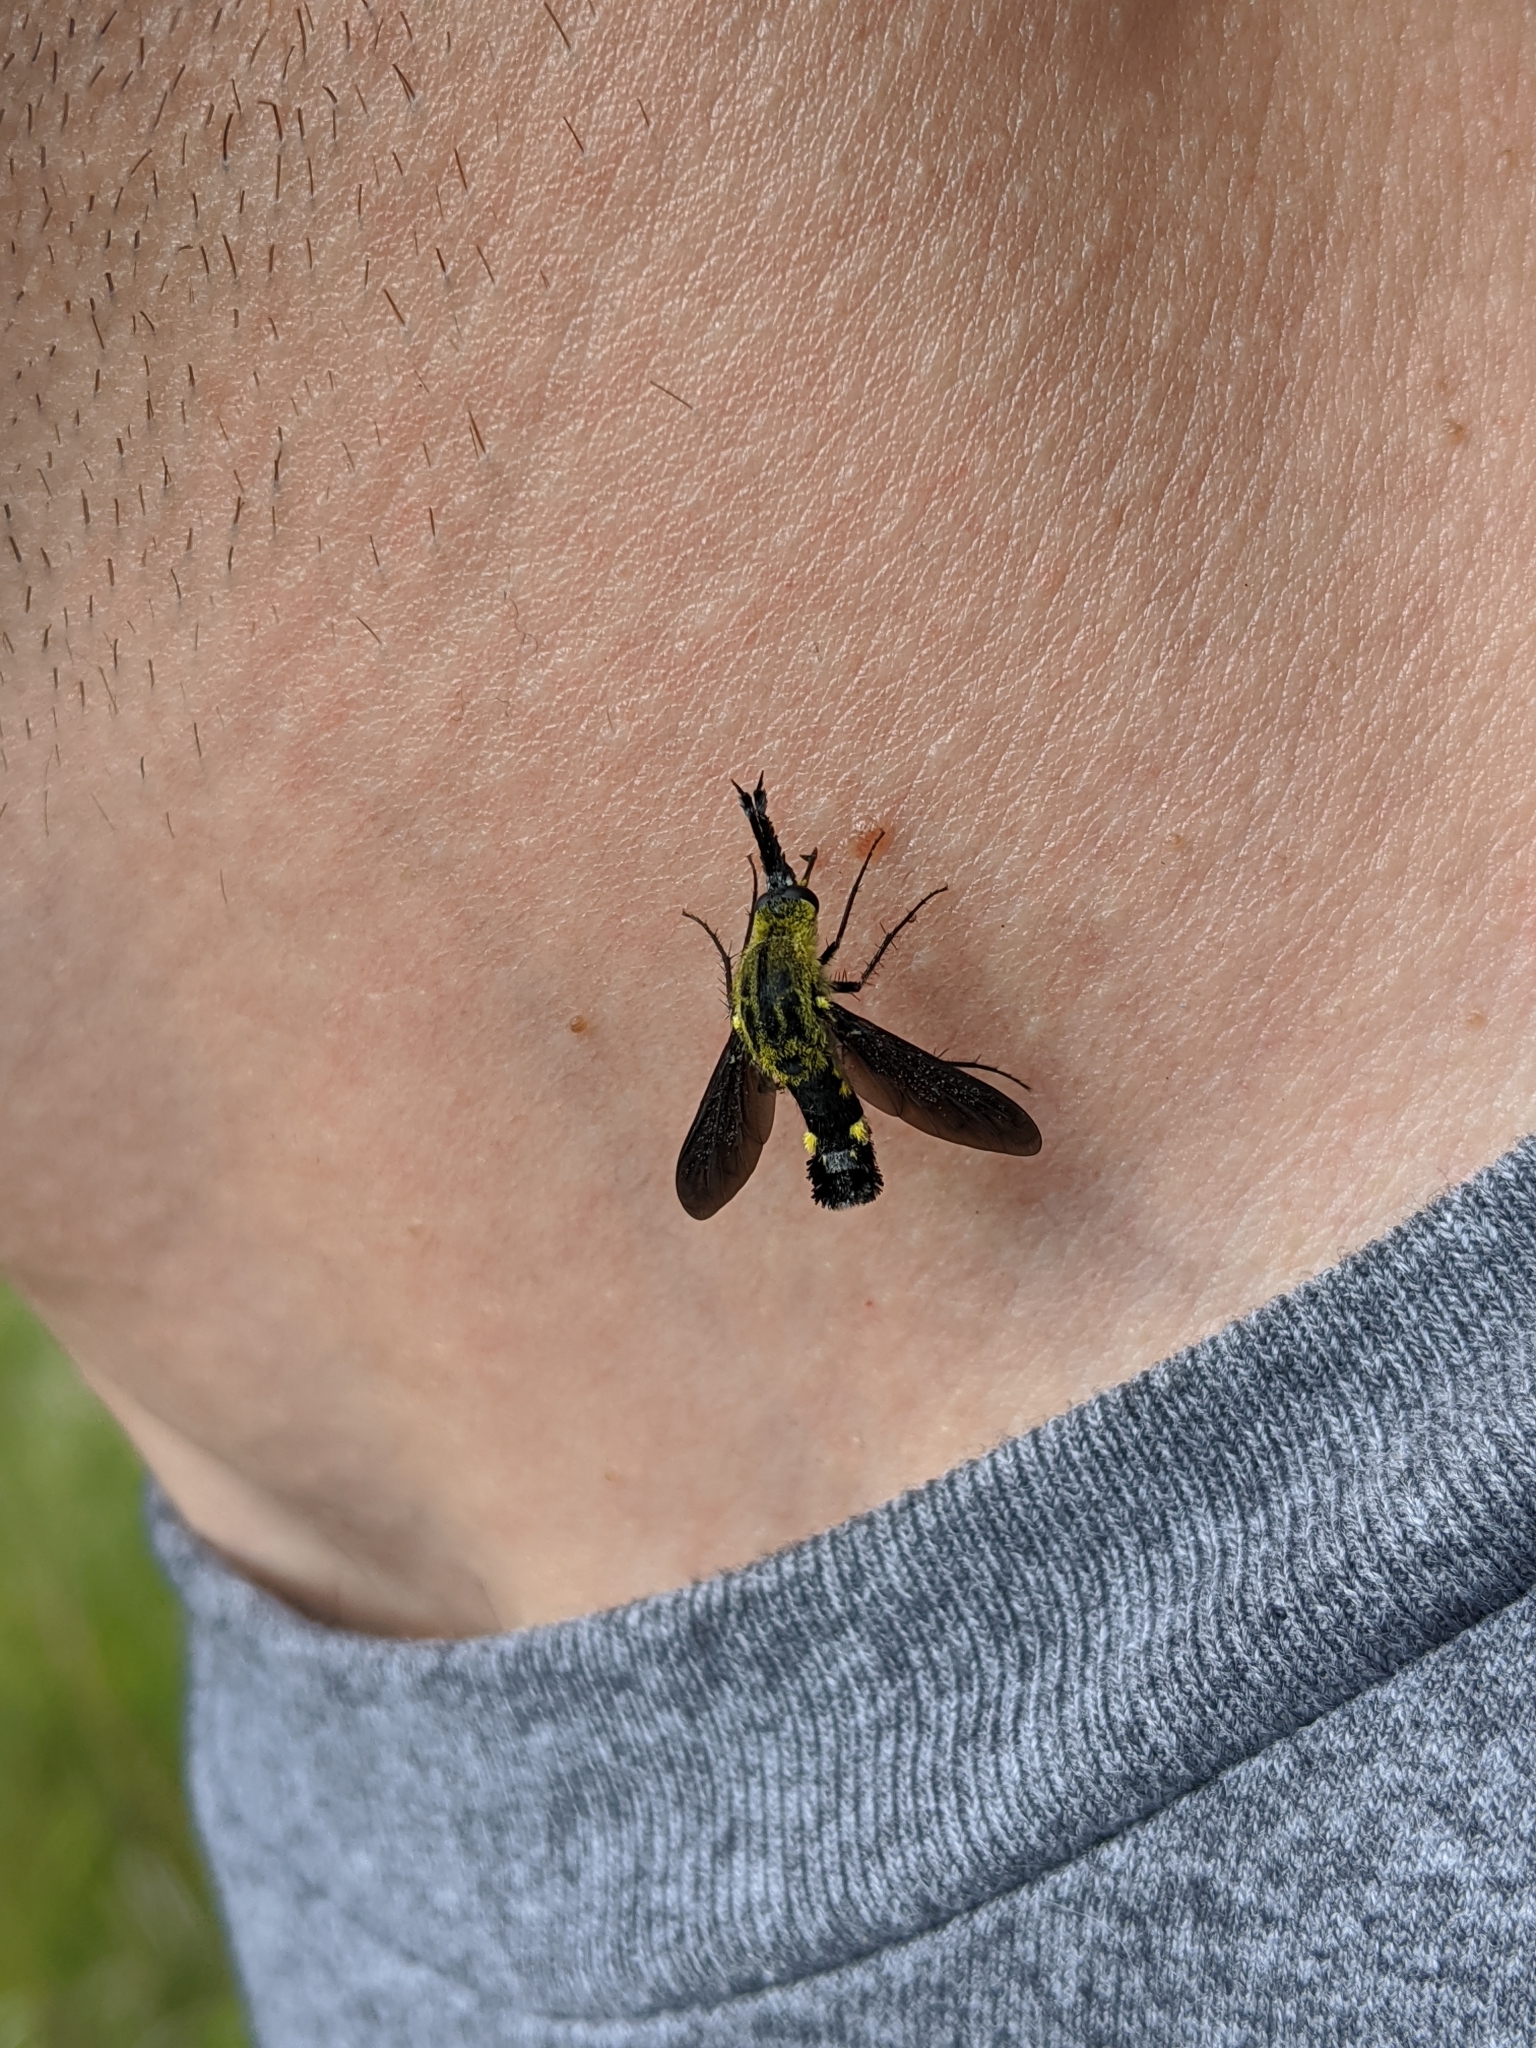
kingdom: Animalia
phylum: Arthropoda
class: Insecta
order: Diptera
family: Bombyliidae
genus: Lepidophora
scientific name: Lepidophora lepidocera
